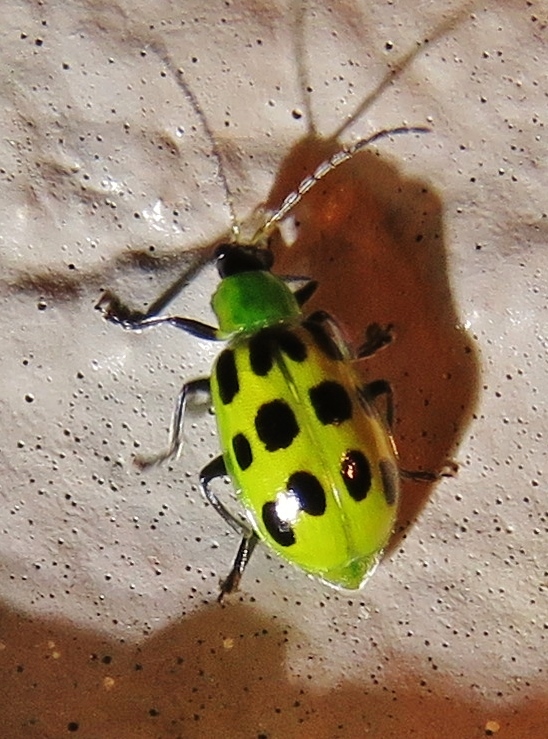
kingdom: Animalia
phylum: Arthropoda
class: Insecta
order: Coleoptera
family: Chrysomelidae
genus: Diabrotica
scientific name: Diabrotica undecimpunctata
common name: Spotted cucumber beetle
